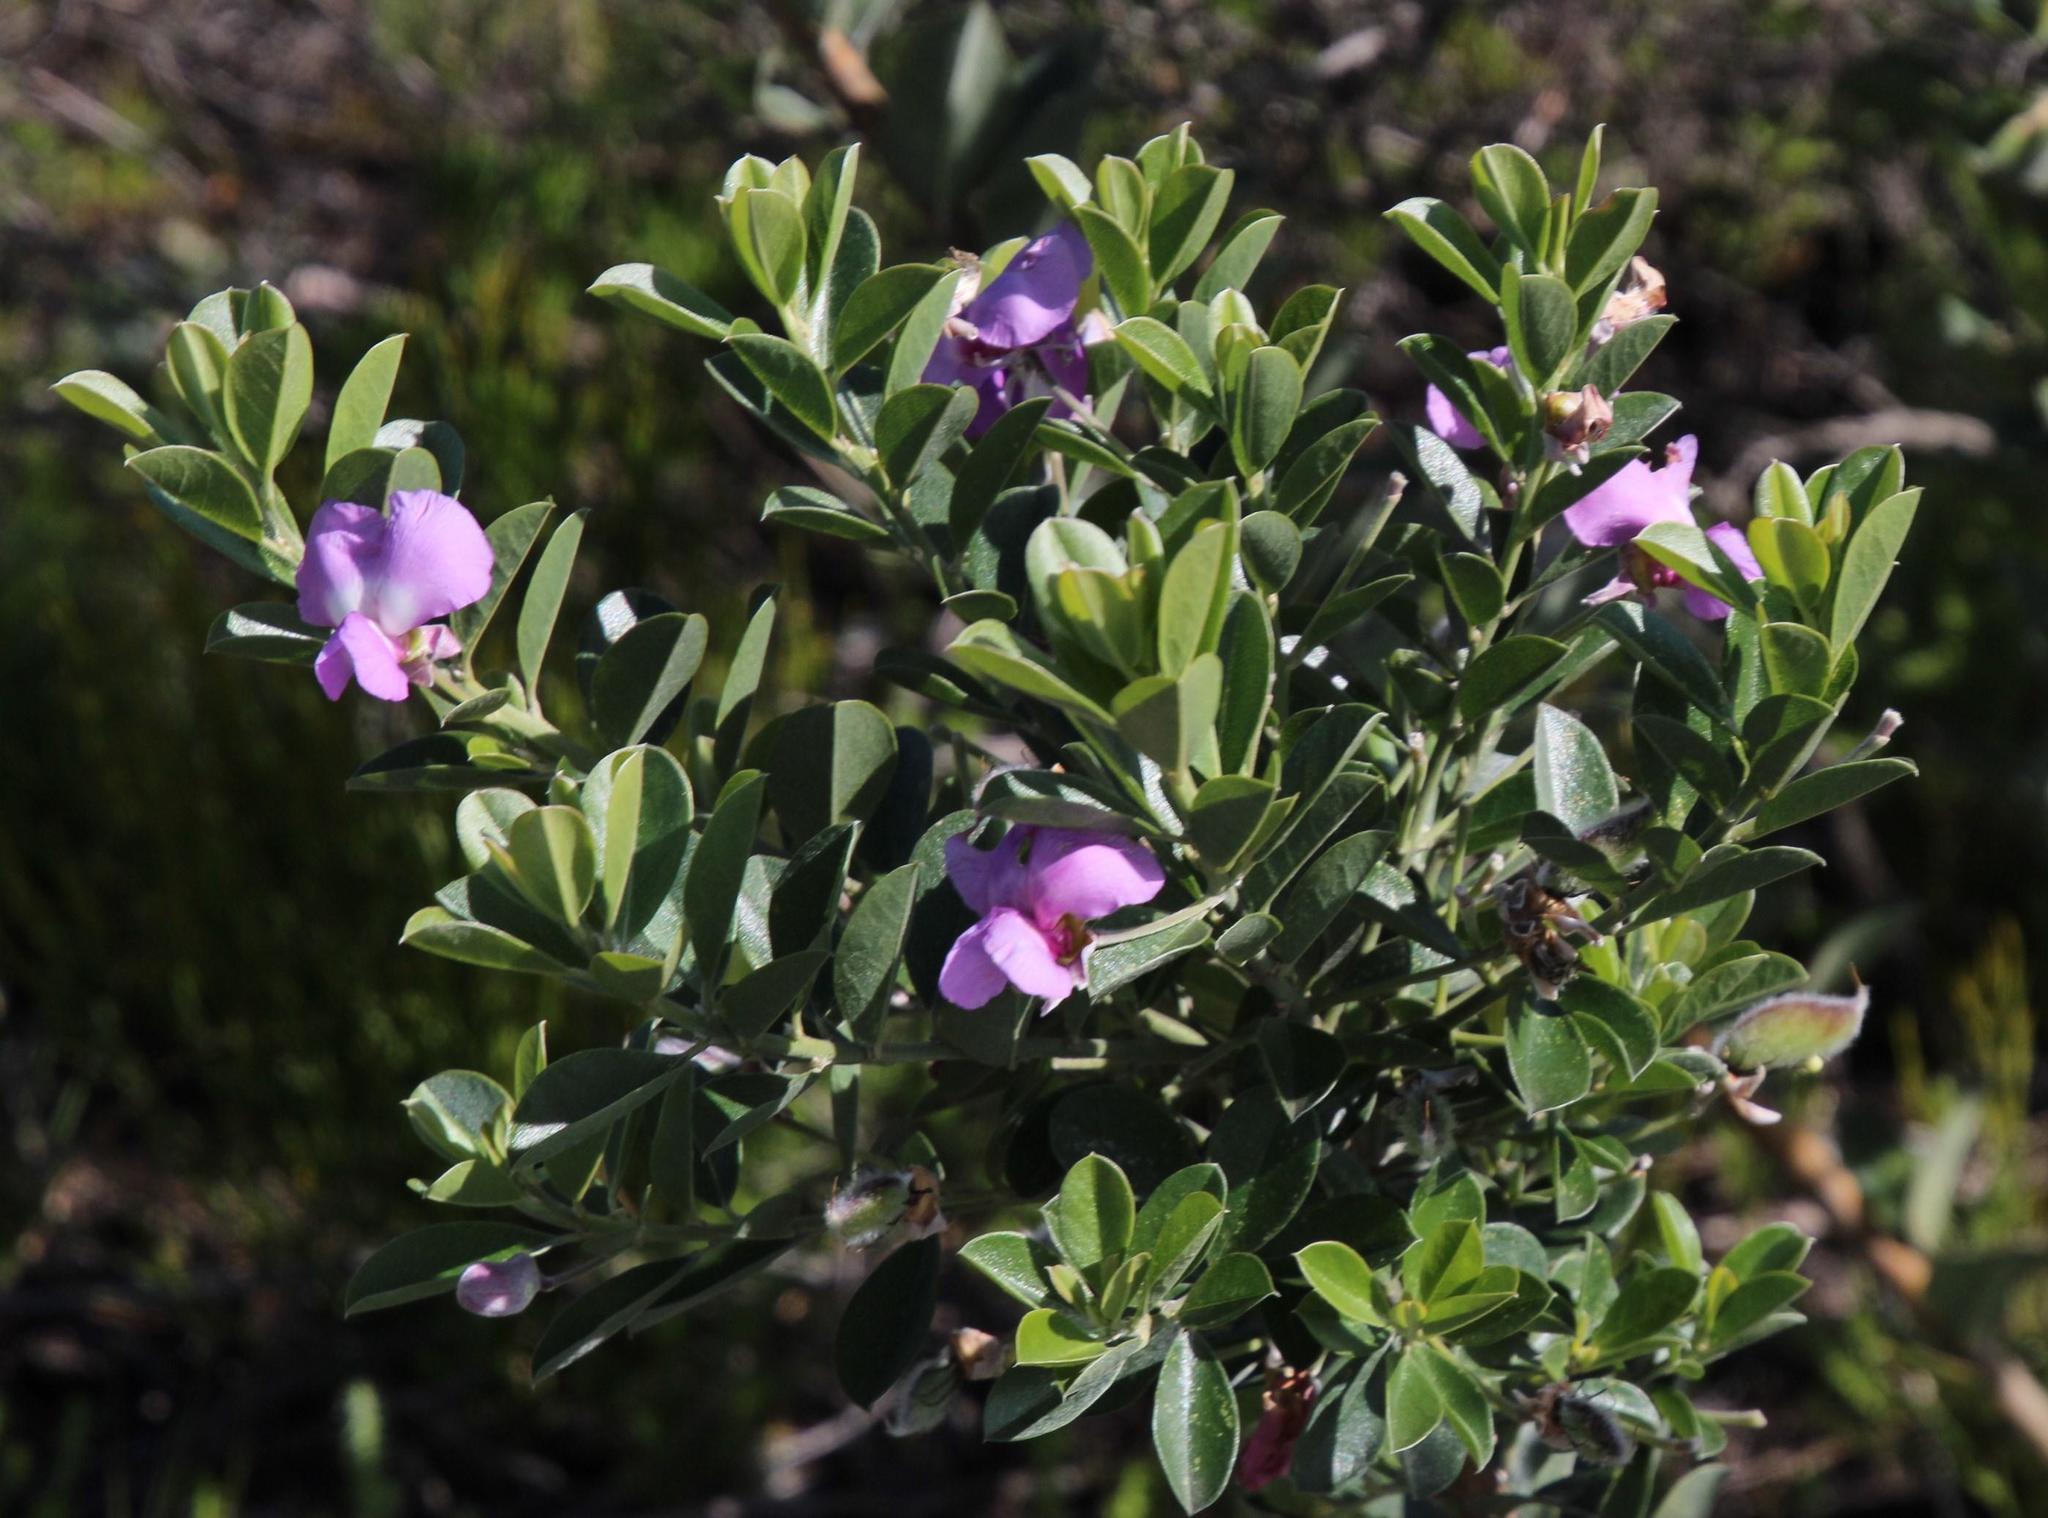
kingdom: Plantae
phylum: Tracheophyta
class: Magnoliopsida
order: Fabales
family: Fabaceae
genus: Podalyria
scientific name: Podalyria calyptrata
